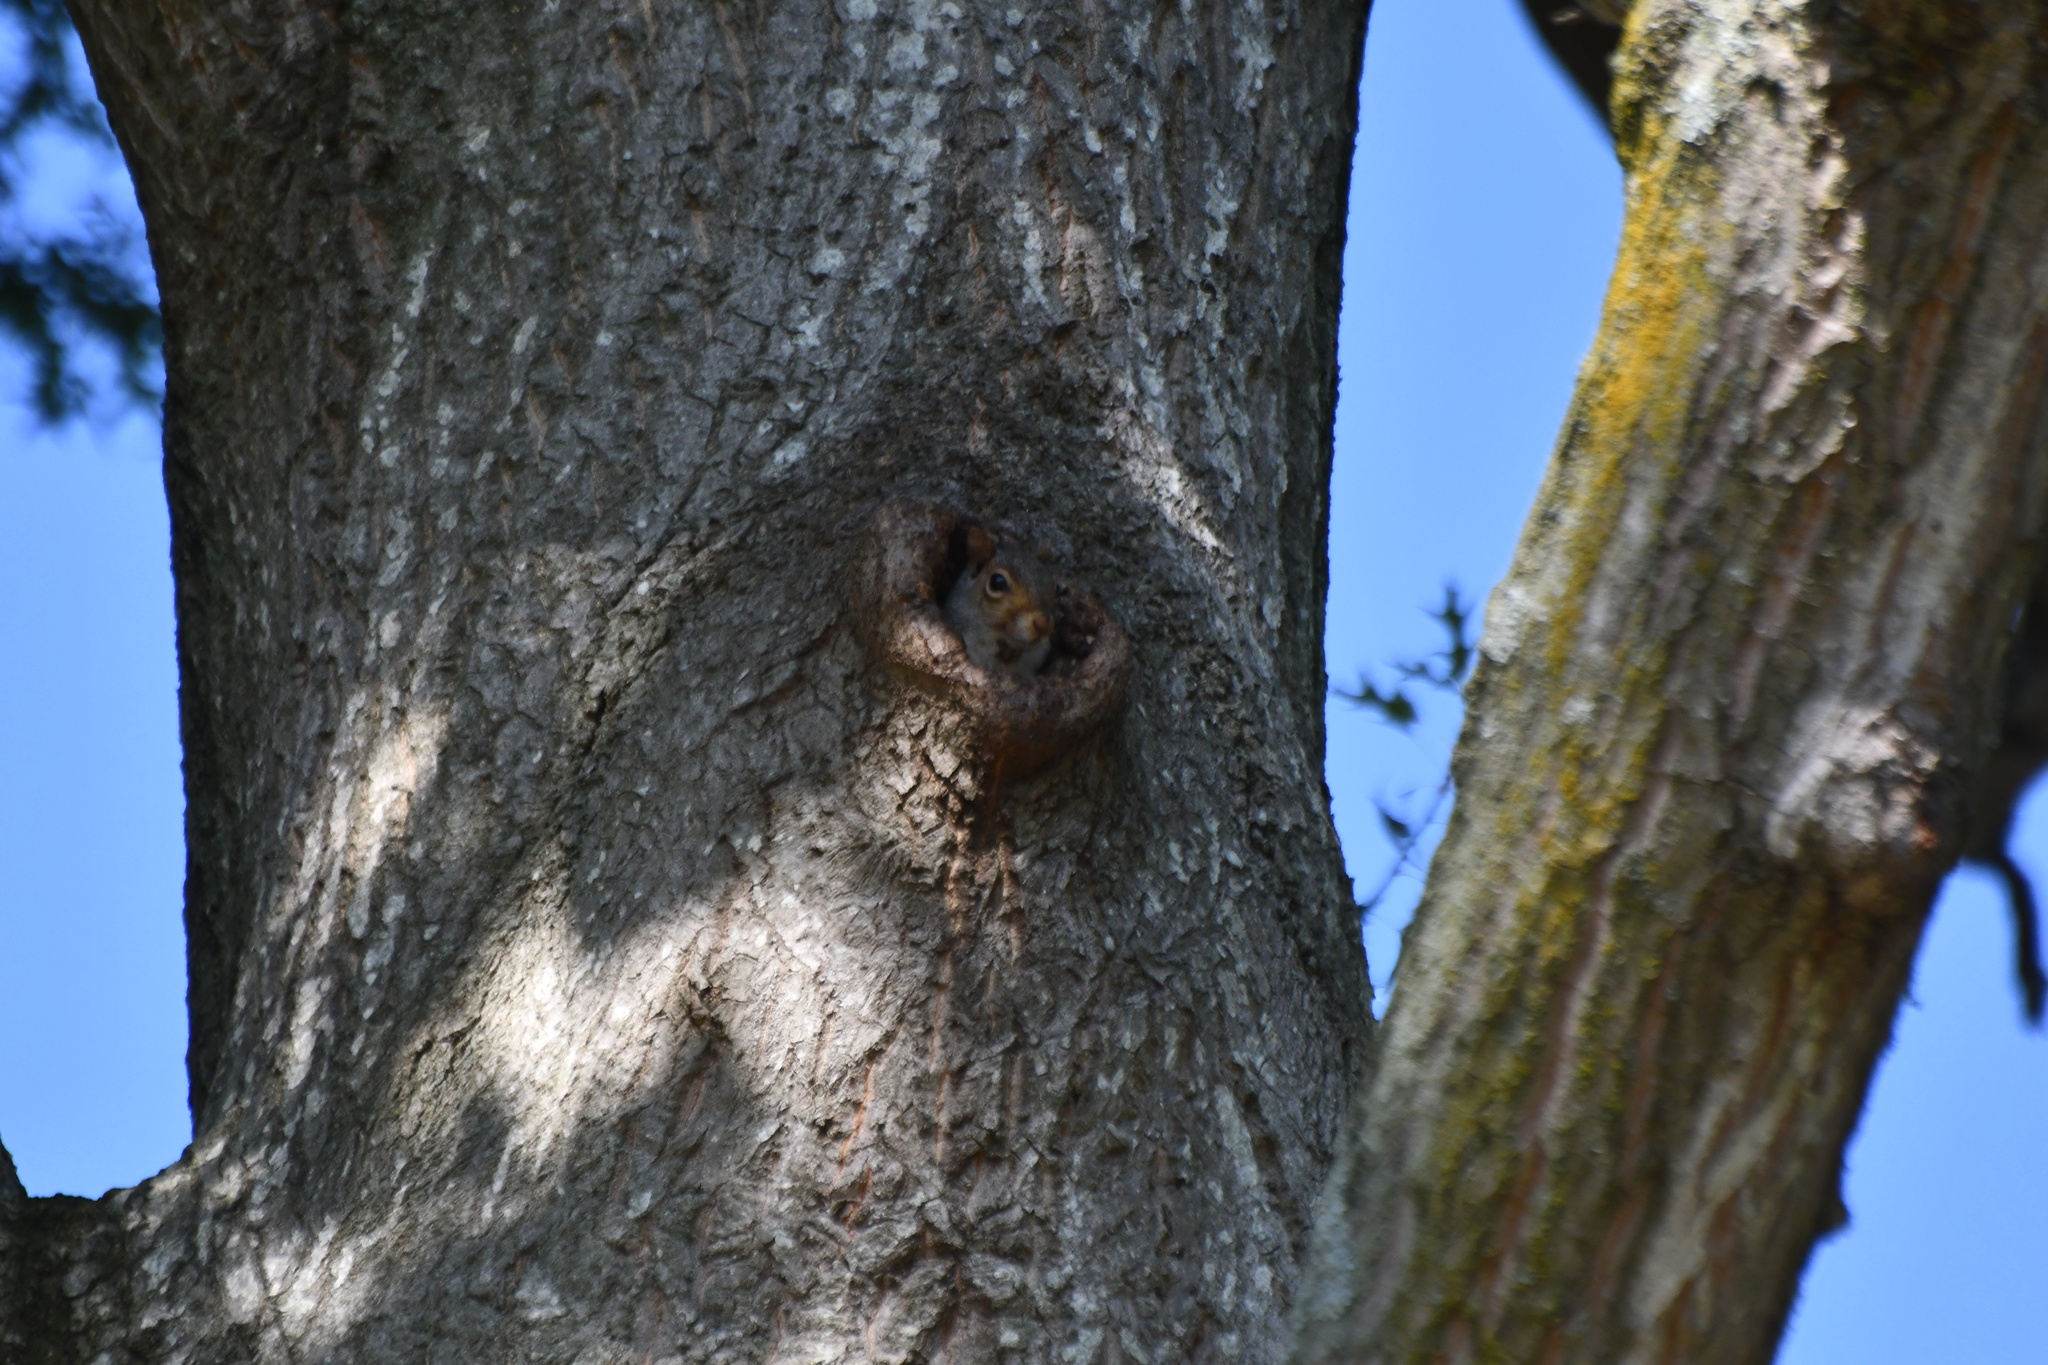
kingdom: Animalia
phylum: Chordata
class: Mammalia
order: Rodentia
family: Sciuridae
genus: Sciurus
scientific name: Sciurus carolinensis
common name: Eastern gray squirrel
